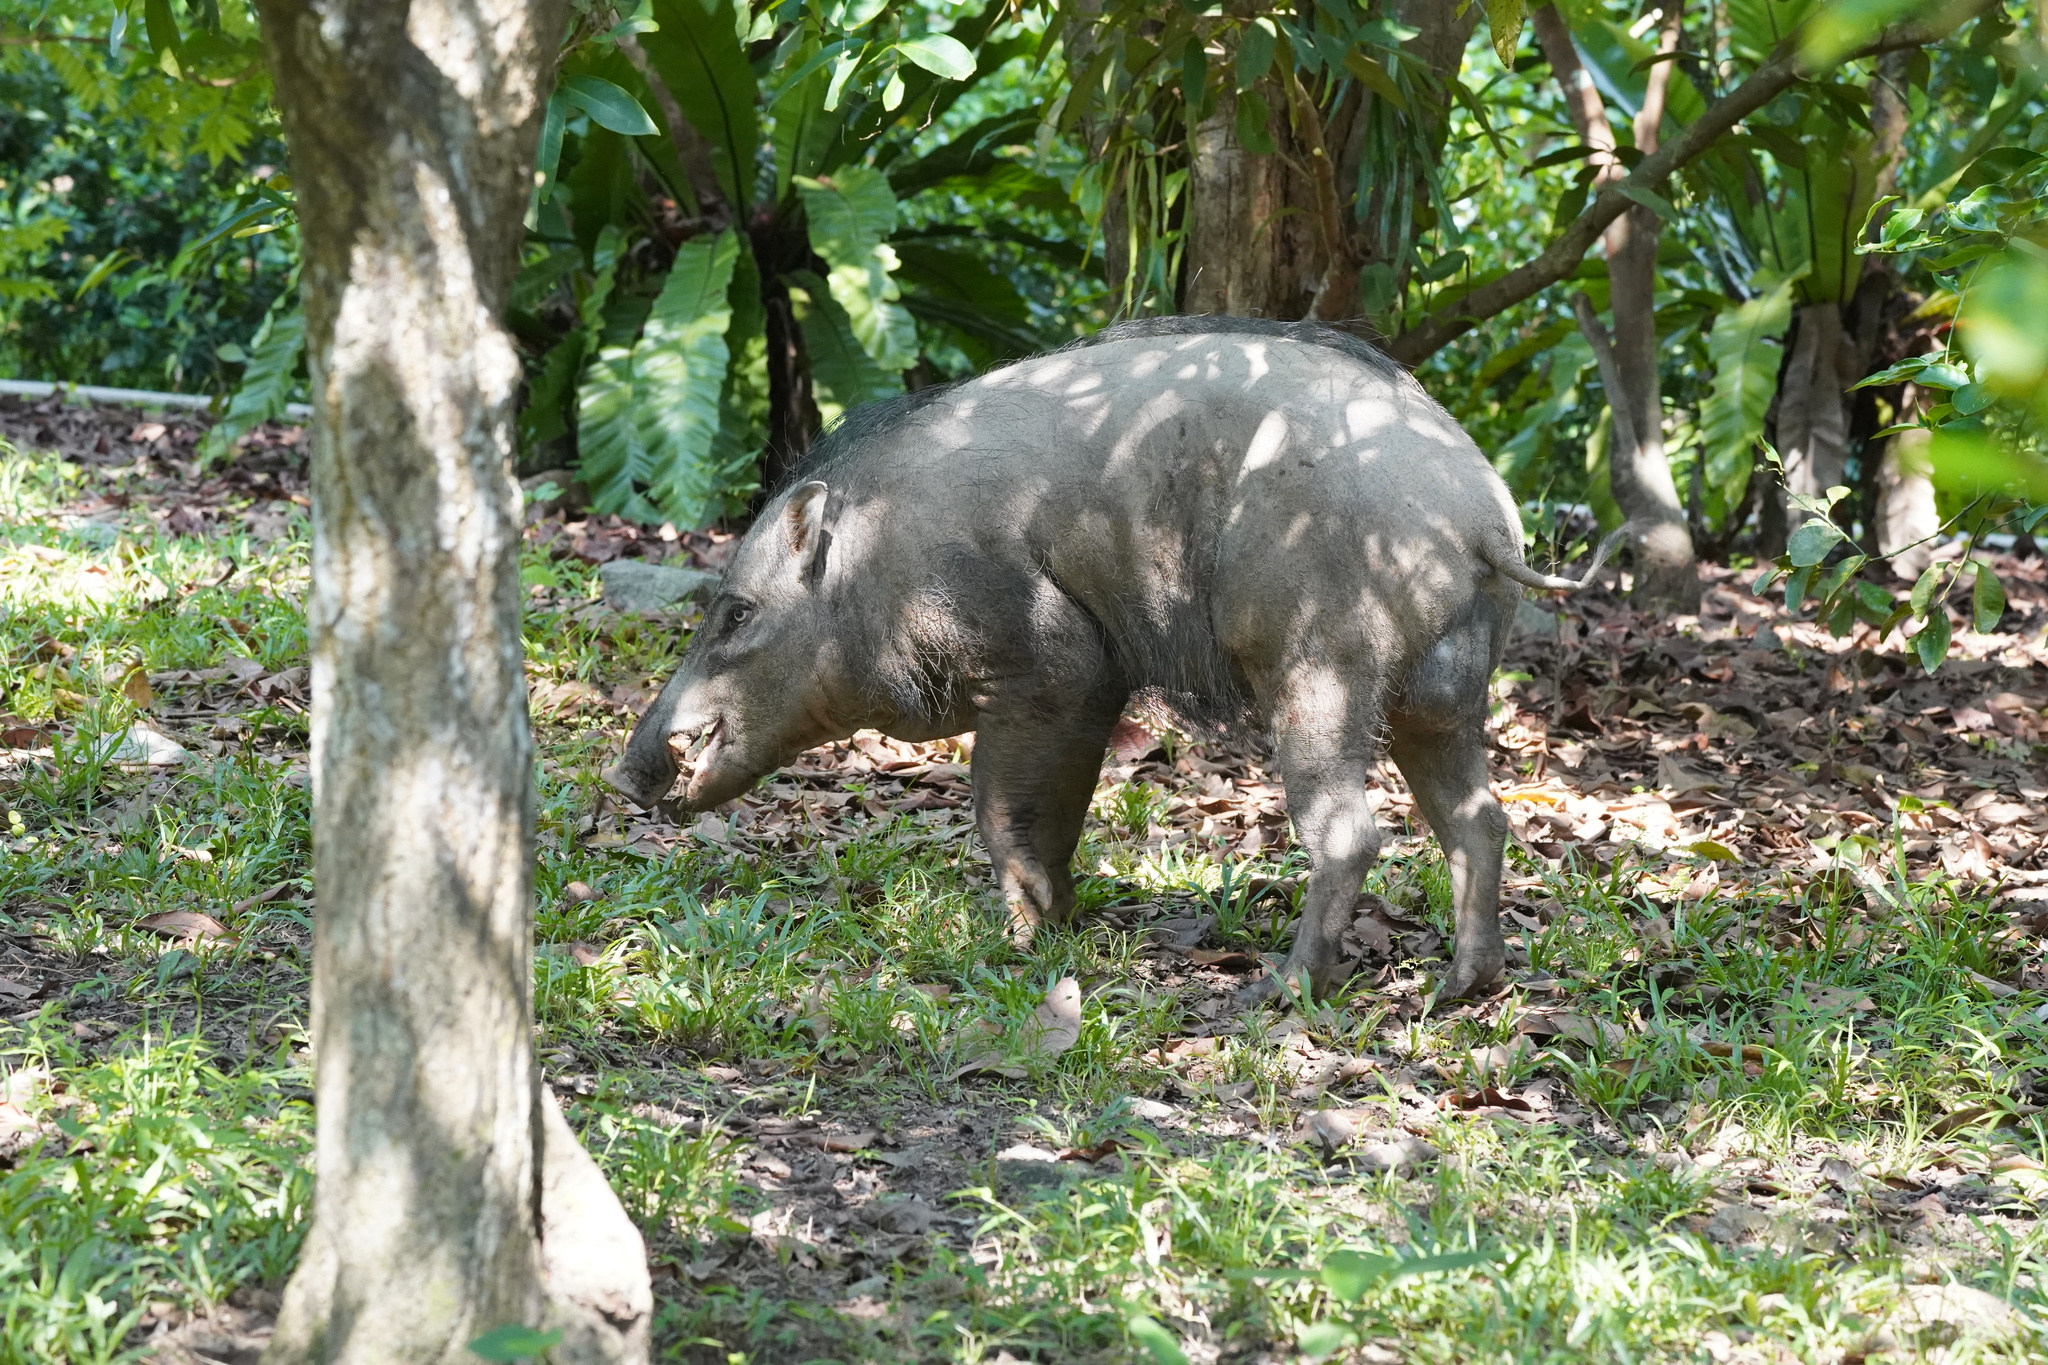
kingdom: Animalia
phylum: Chordata
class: Mammalia
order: Artiodactyla
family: Suidae
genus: Sus
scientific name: Sus scrofa
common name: Wild boar
